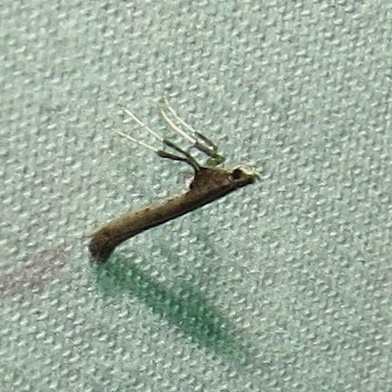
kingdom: Animalia
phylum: Arthropoda
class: Insecta
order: Lepidoptera
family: Gracillariidae
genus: Caloptilia
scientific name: Caloptilia rhoifoliella
